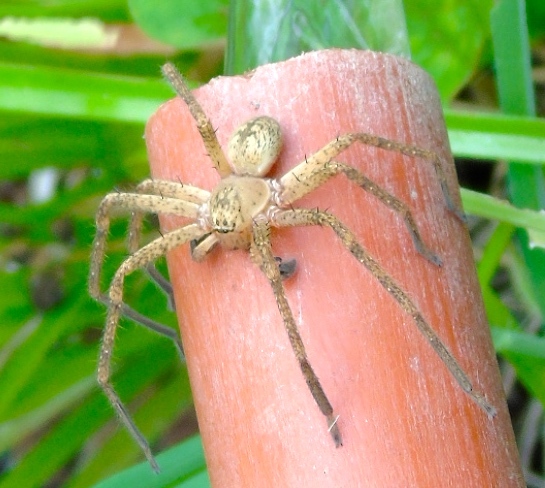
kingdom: Animalia
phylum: Arthropoda
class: Arachnida
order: Araneae
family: Sparassidae
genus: Curicaberis
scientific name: Curicaberis culiacan
